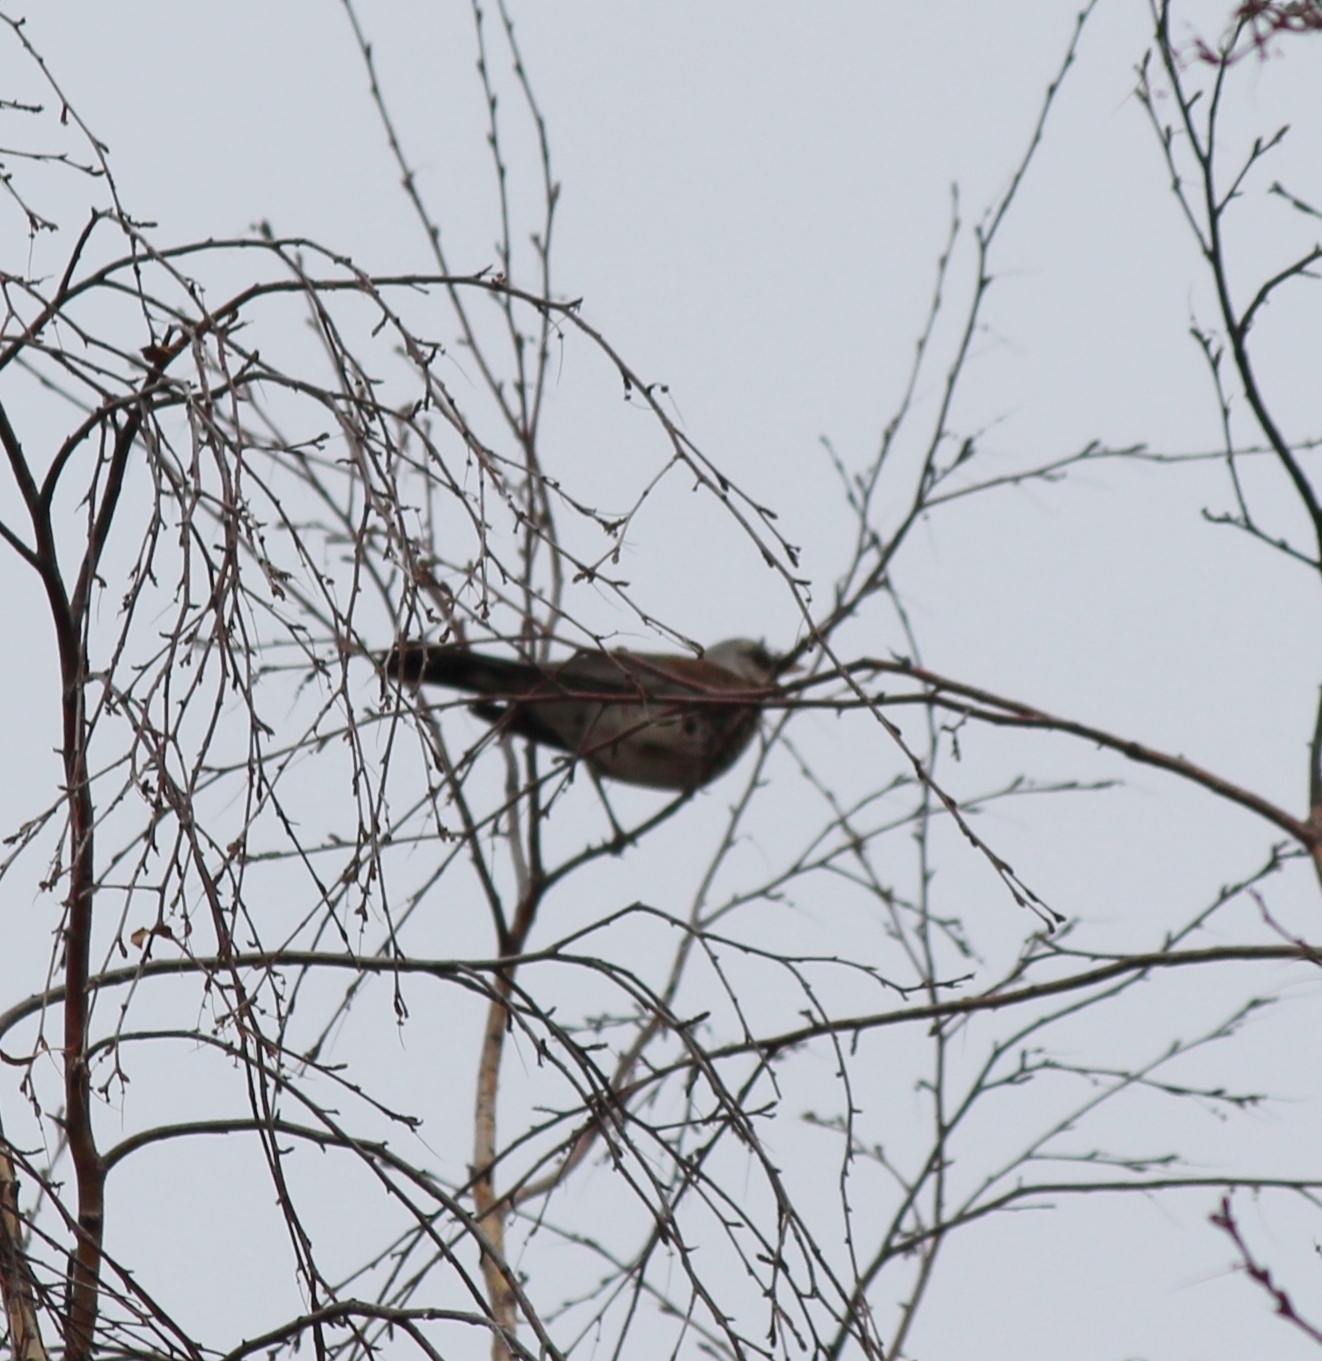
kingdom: Animalia
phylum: Chordata
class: Aves
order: Passeriformes
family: Turdidae
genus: Turdus
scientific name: Turdus pilaris
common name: Fieldfare
